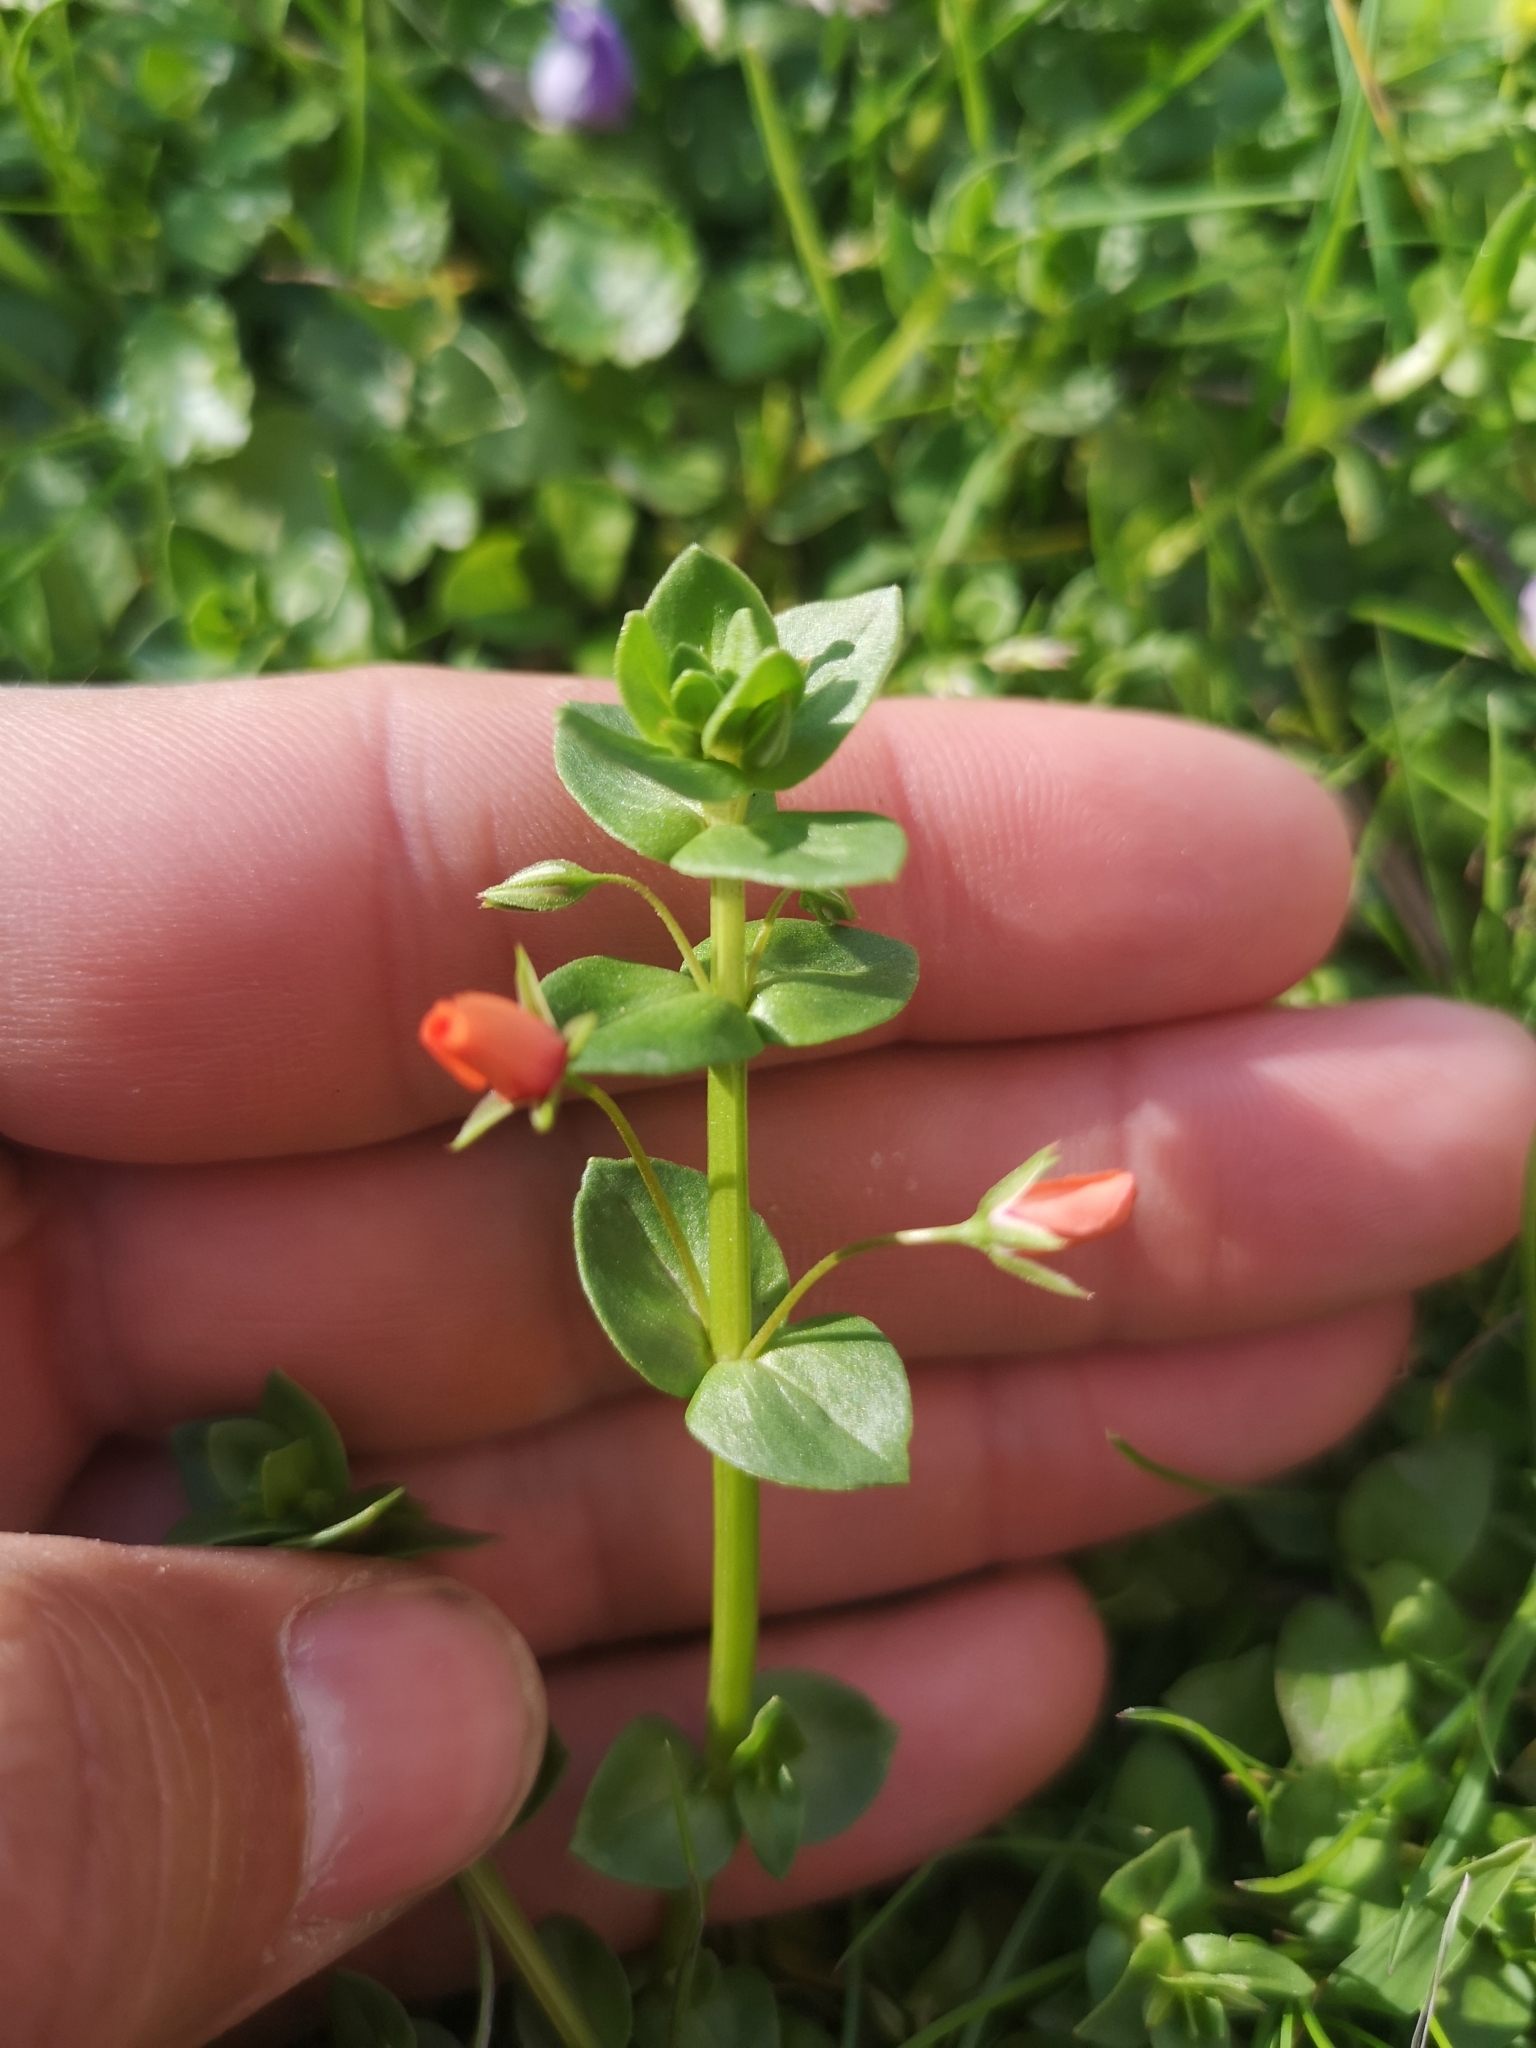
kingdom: Plantae
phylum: Tracheophyta
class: Magnoliopsida
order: Ericales
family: Primulaceae
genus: Lysimachia
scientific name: Lysimachia arvensis
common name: Scarlet pimpernel
